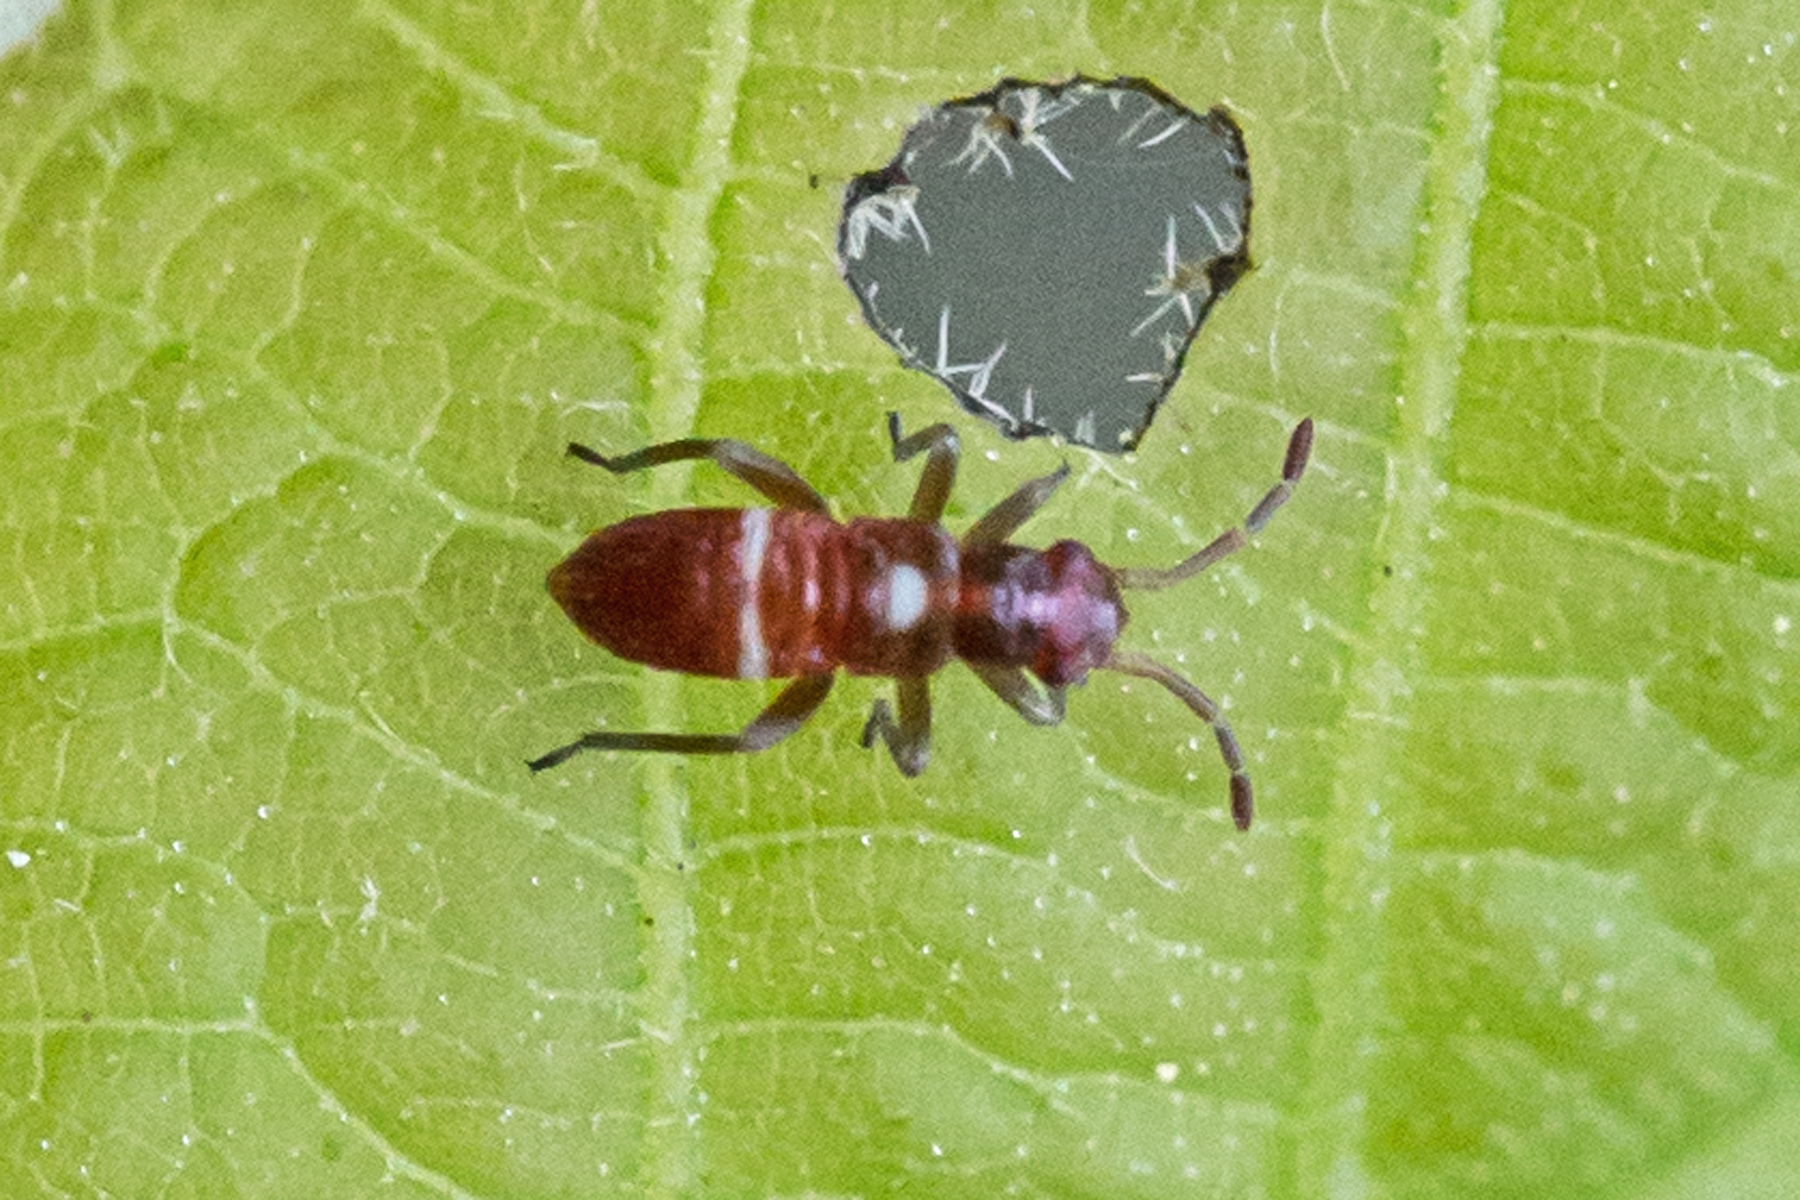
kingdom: Animalia
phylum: Arthropoda
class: Insecta
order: Hemiptera
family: Miridae
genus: Pseudoxenetus
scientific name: Pseudoxenetus regalis
